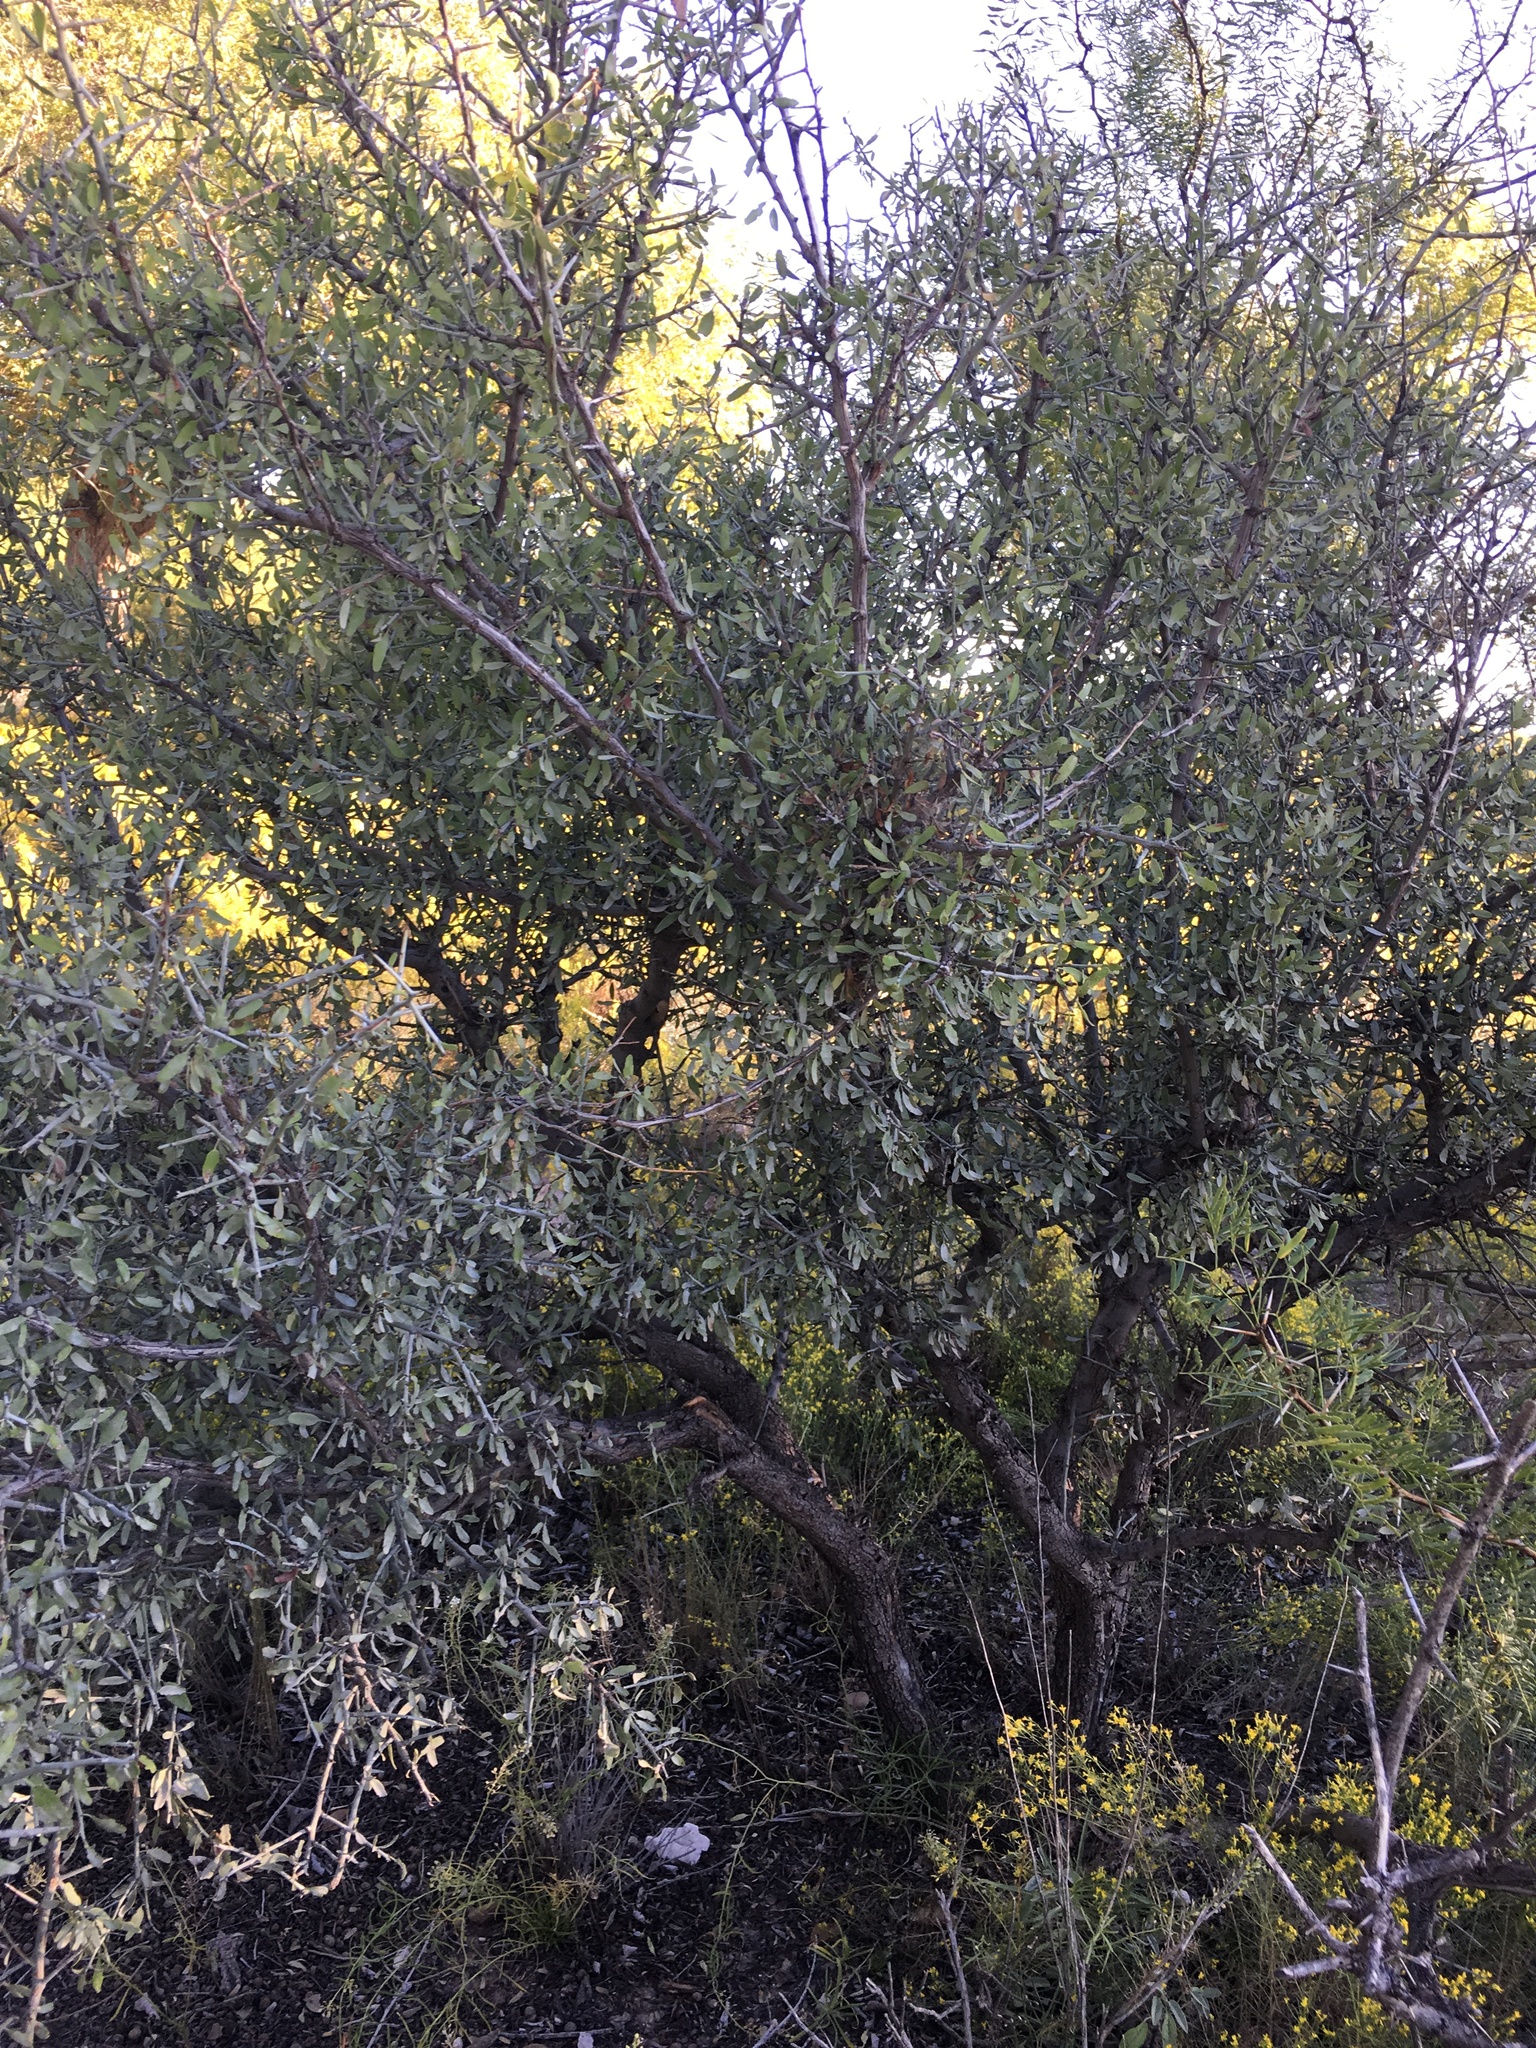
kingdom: Plantae
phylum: Tracheophyta
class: Magnoliopsida
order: Rosales
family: Rhamnaceae
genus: Sarcomphalus
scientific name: Sarcomphalus obtusifolius
